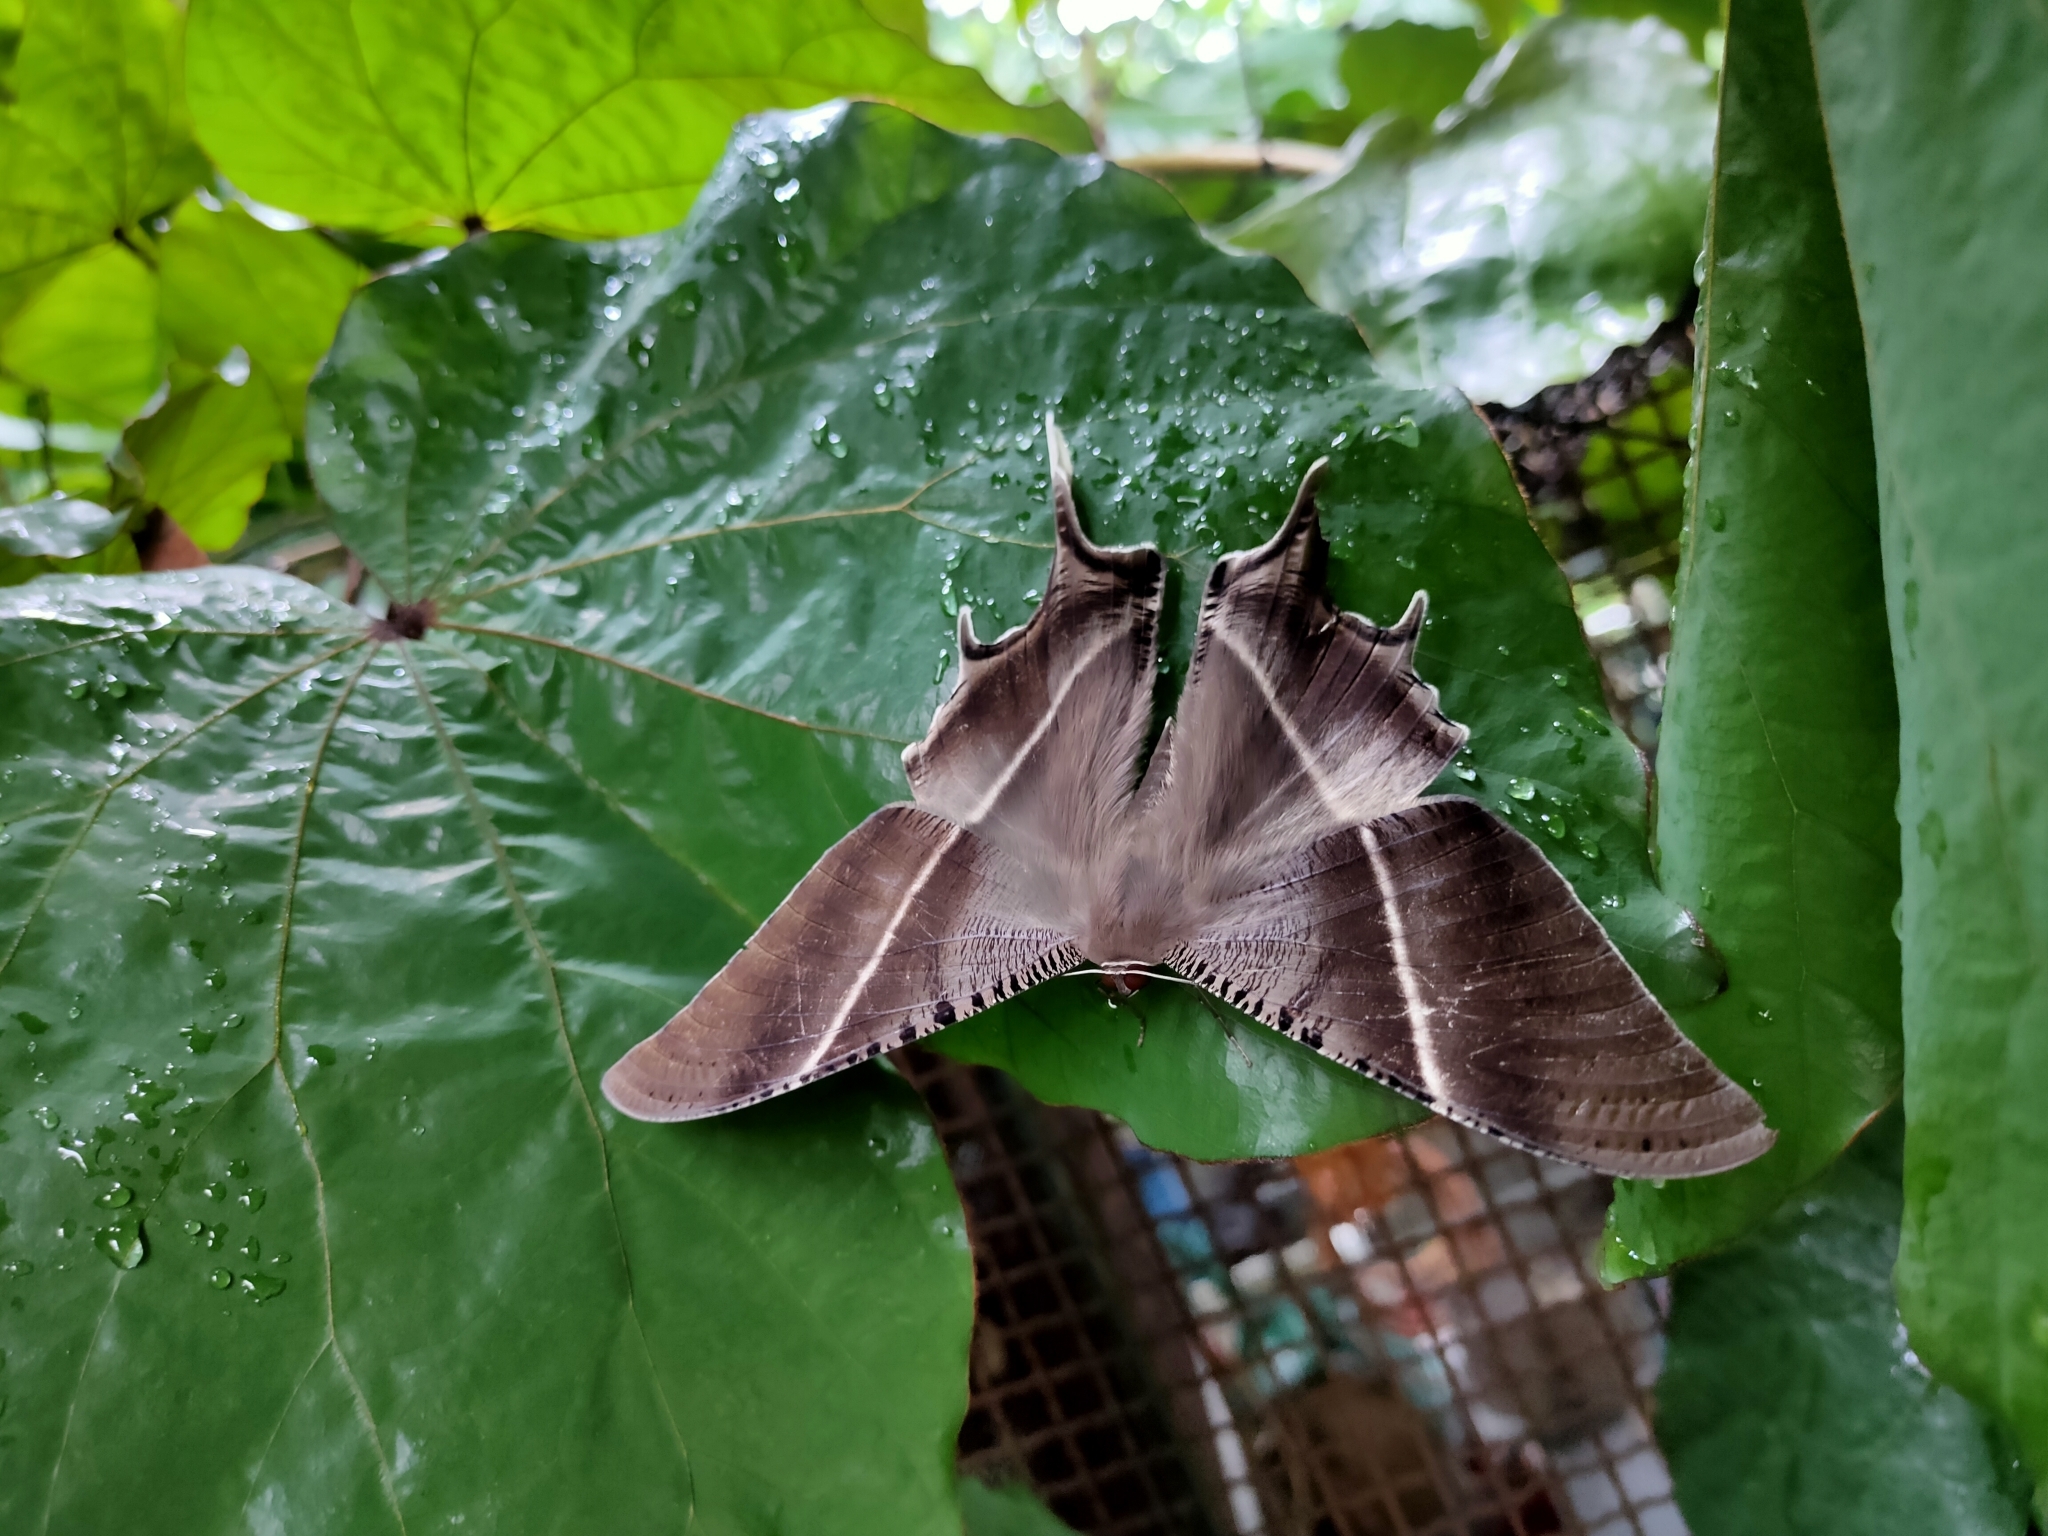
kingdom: Animalia
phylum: Arthropoda
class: Insecta
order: Lepidoptera
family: Uraniidae
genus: Lyssa
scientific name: Lyssa zampa
